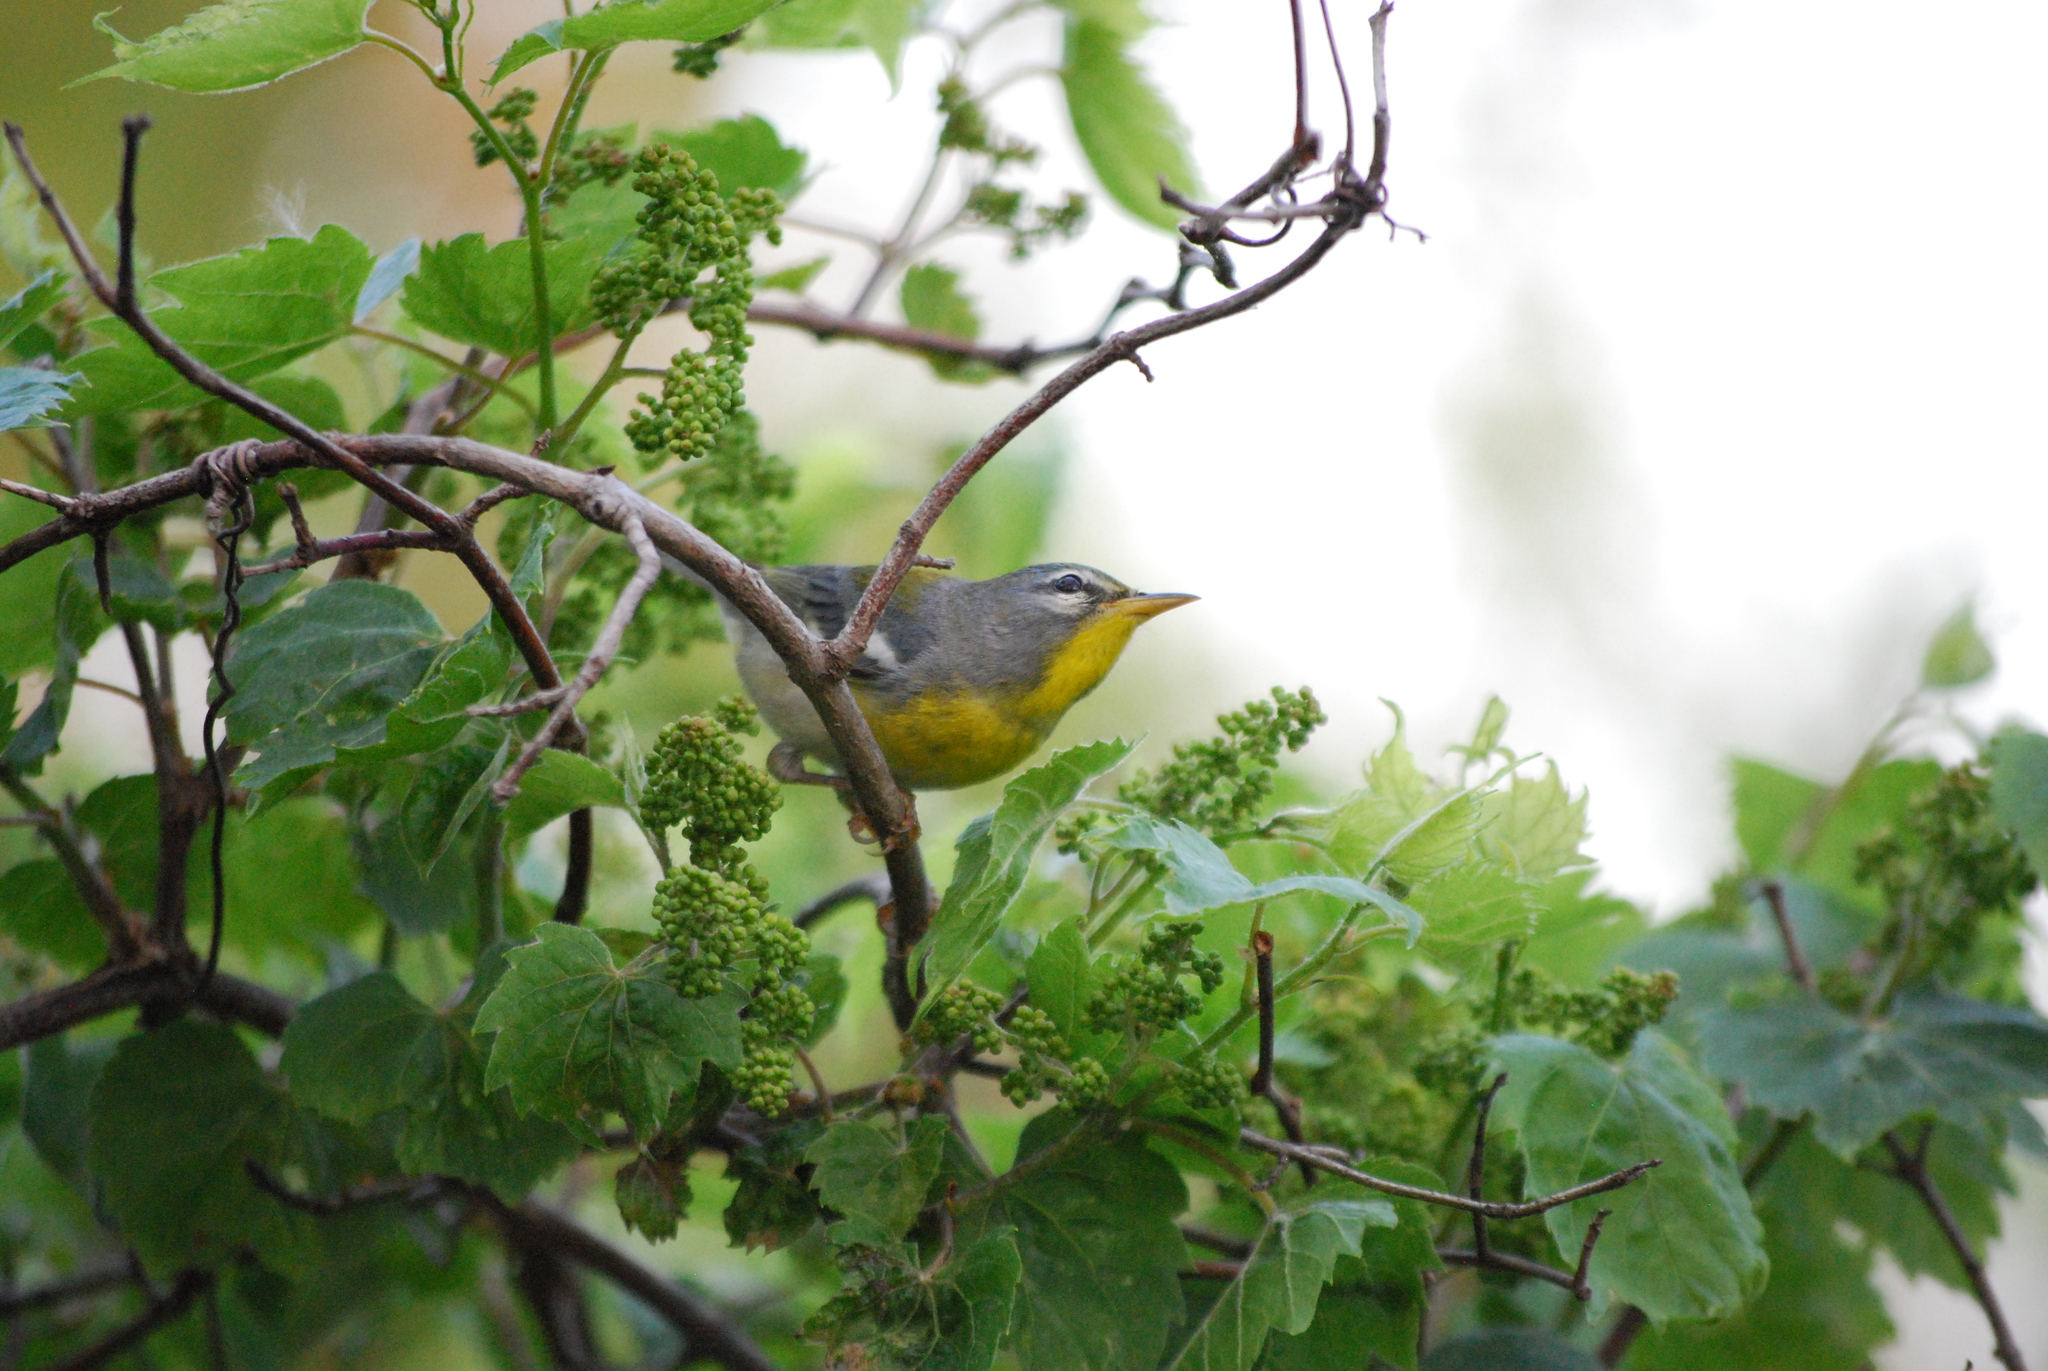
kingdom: Animalia
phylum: Chordata
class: Aves
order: Passeriformes
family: Parulidae
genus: Setophaga
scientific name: Setophaga americana
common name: Northern parula
